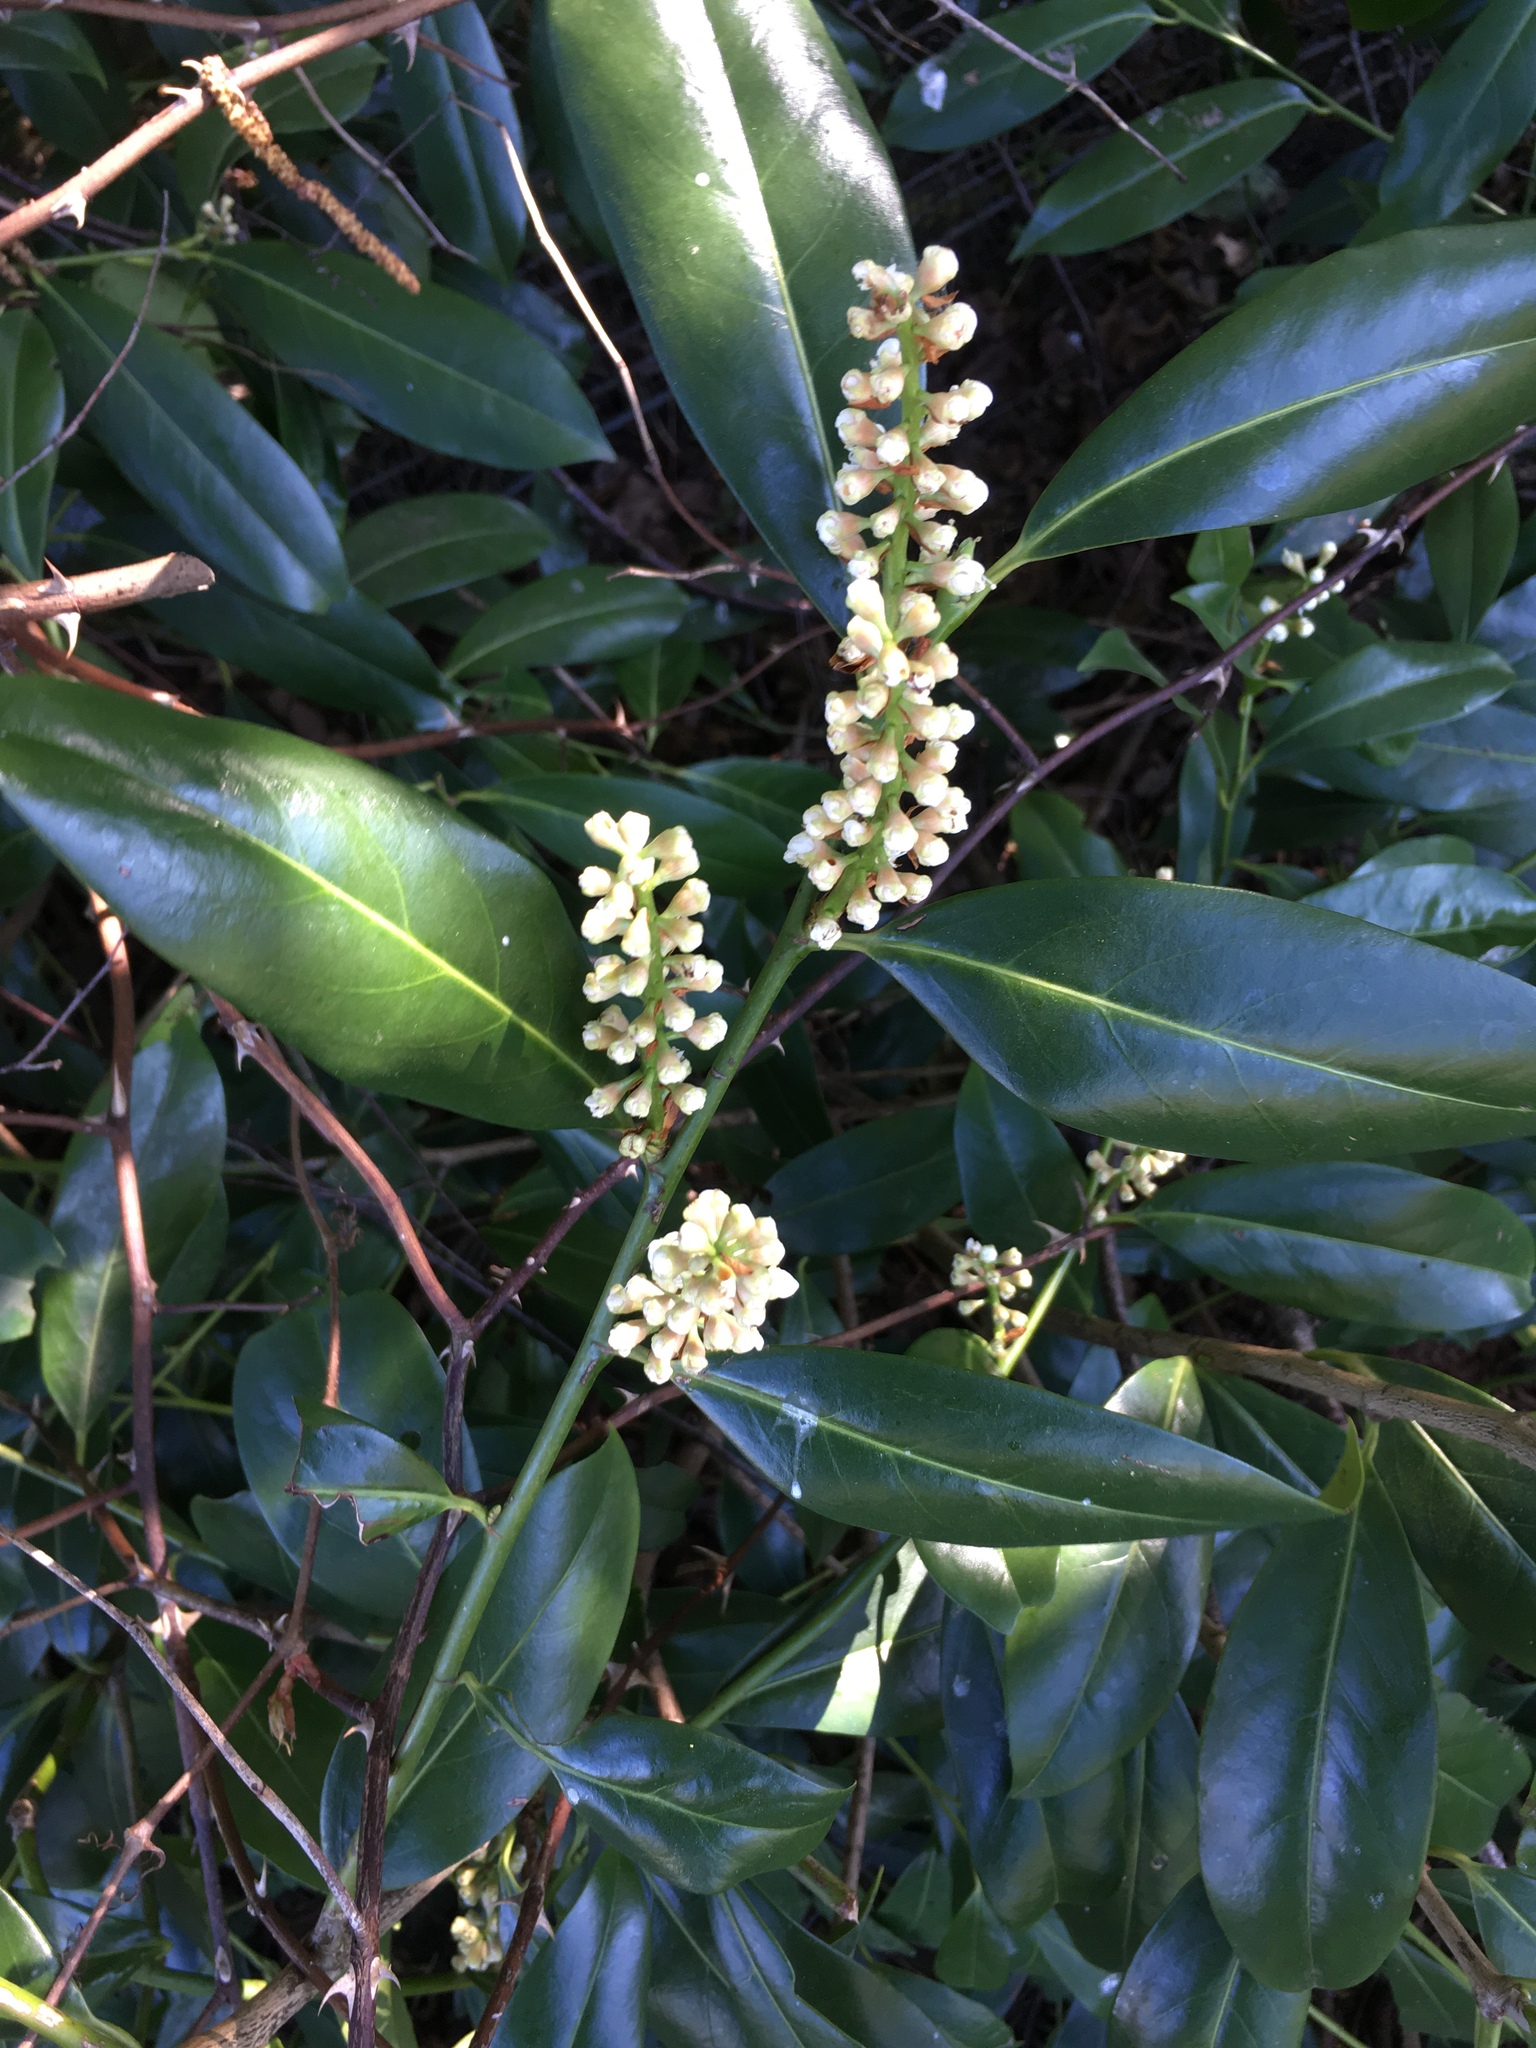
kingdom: Plantae
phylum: Tracheophyta
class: Magnoliopsida
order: Rosales
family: Rosaceae
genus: Prunus
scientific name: Prunus laurocerasus
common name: Cherry laurel
